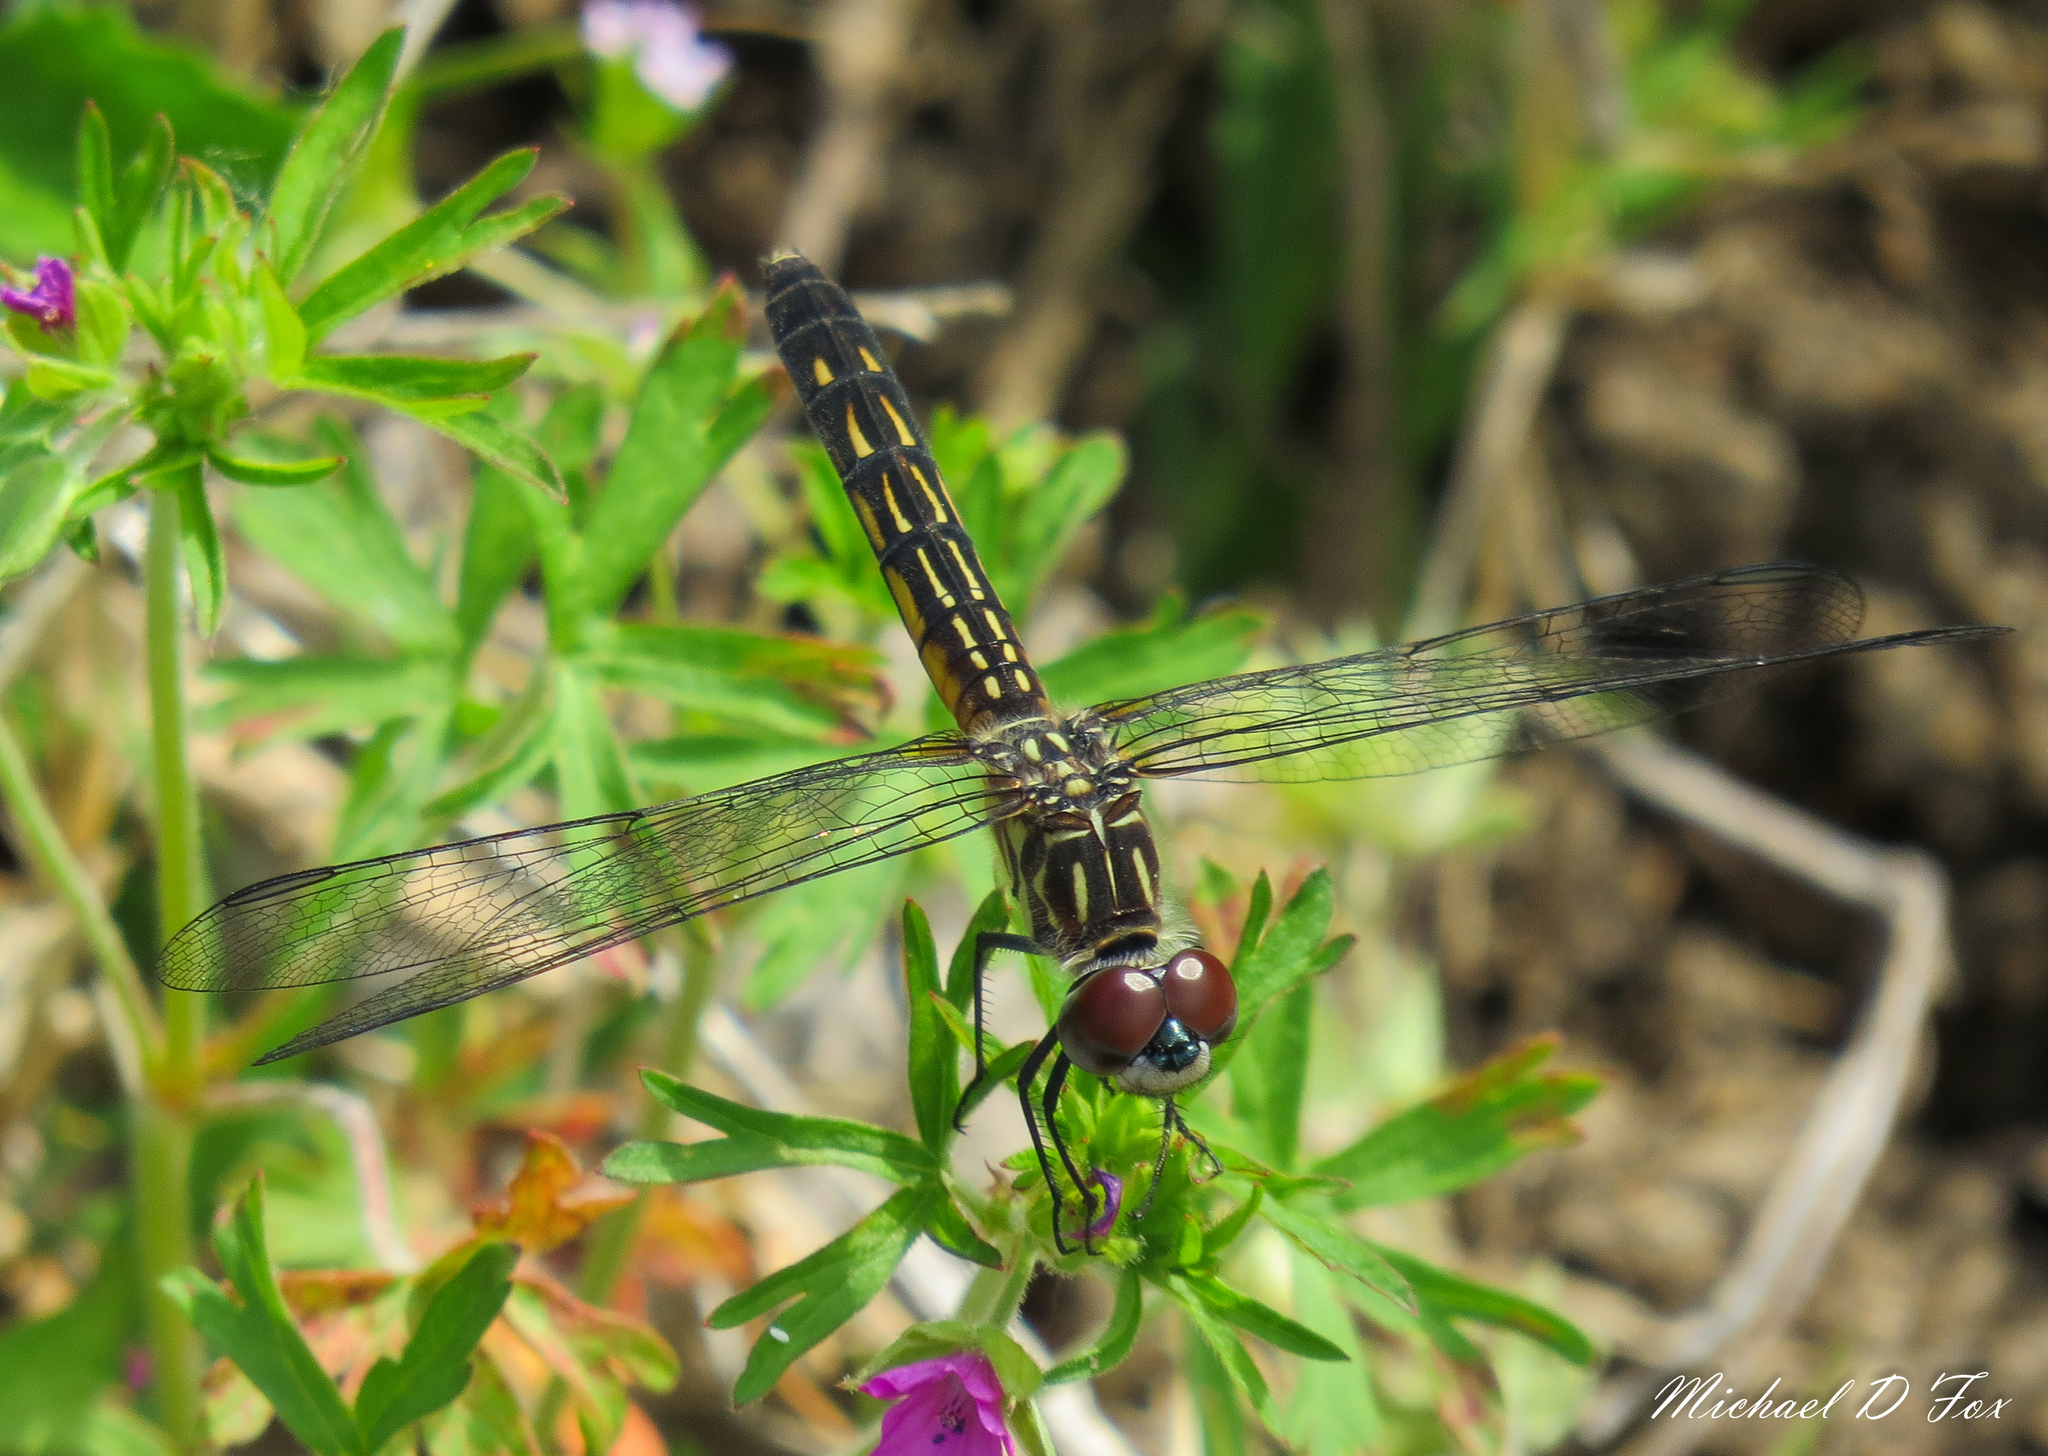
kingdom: Animalia
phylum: Arthropoda
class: Insecta
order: Odonata
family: Libellulidae
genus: Pachydiplax
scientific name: Pachydiplax longipennis
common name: Blue dasher
